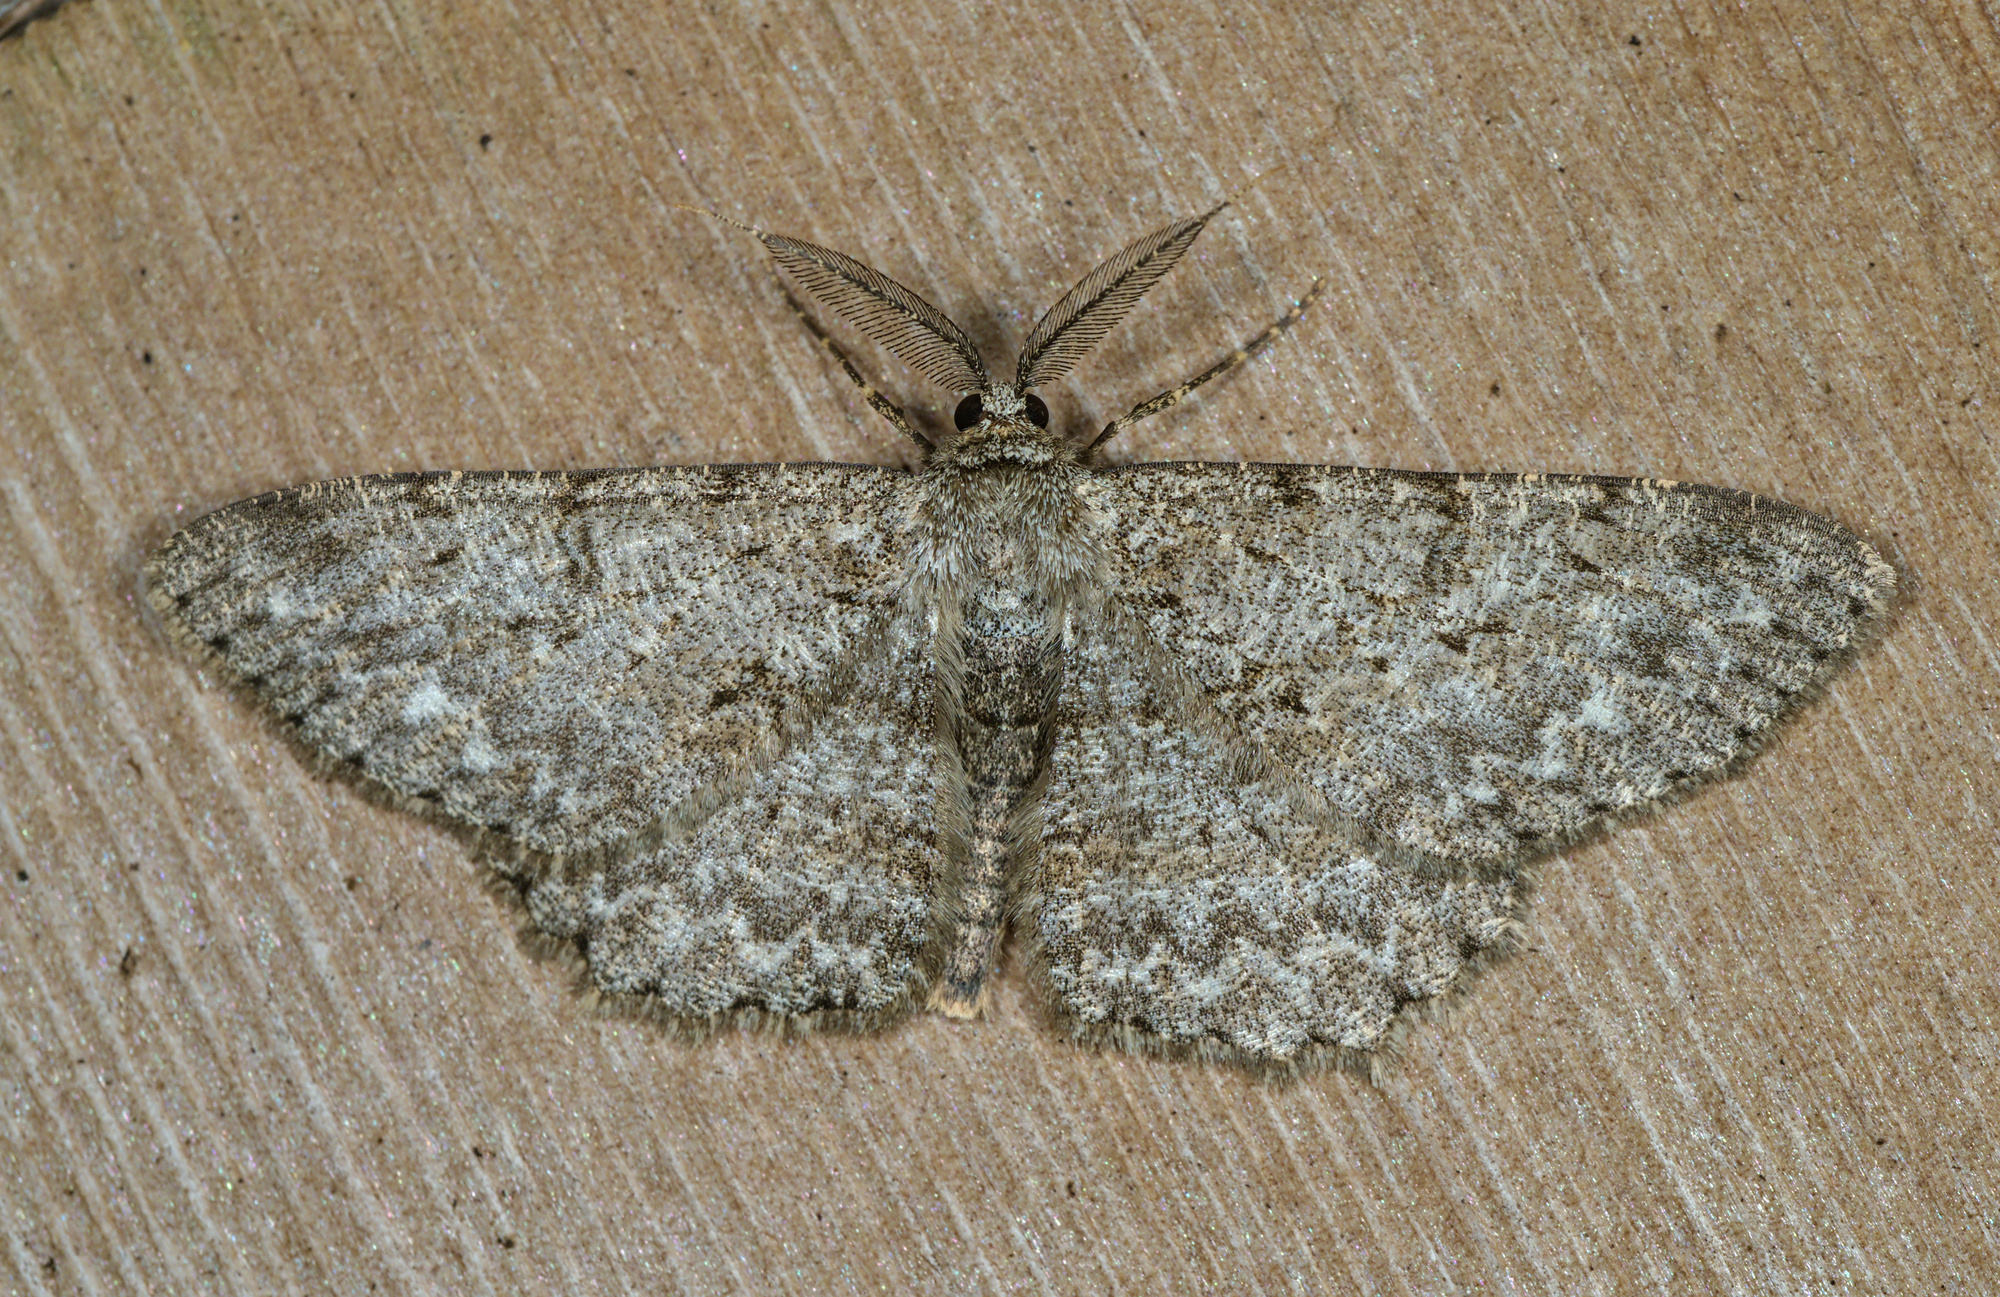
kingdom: Animalia
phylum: Arthropoda
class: Insecta
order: Lepidoptera
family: Geometridae
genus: Hypomecis
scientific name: Hypomecis punctinalis
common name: Pale oak beauty
